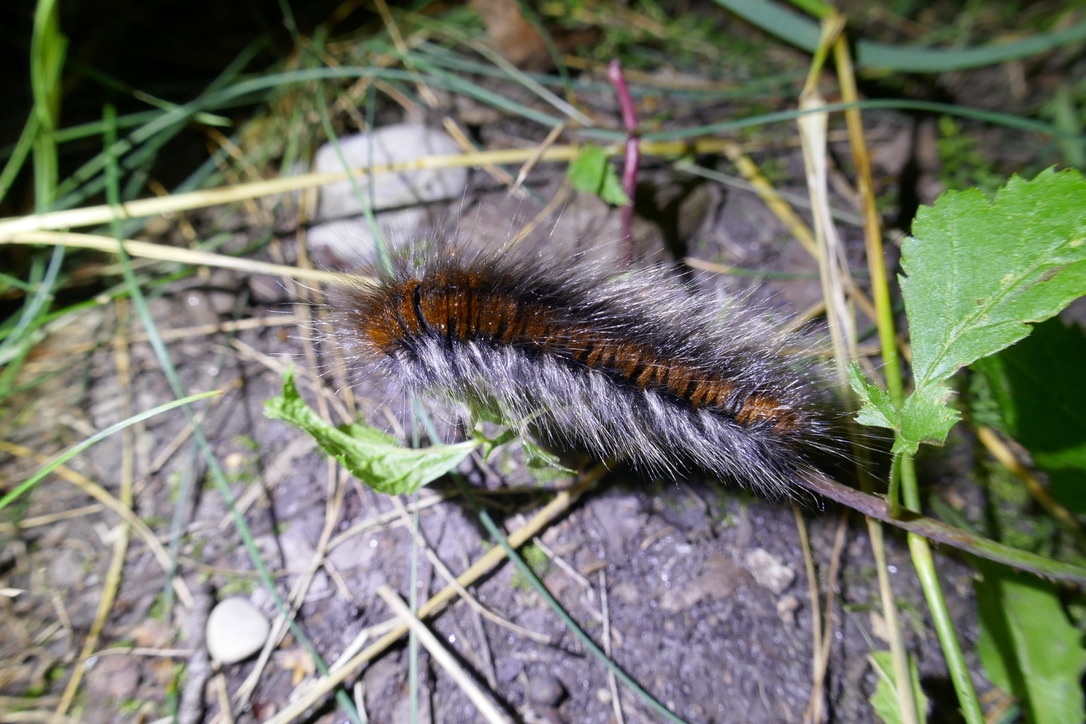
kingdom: Animalia
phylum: Arthropoda
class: Insecta
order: Lepidoptera
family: Lasiocampidae
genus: Macrothylacia
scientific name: Macrothylacia rubi
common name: Fox moth
